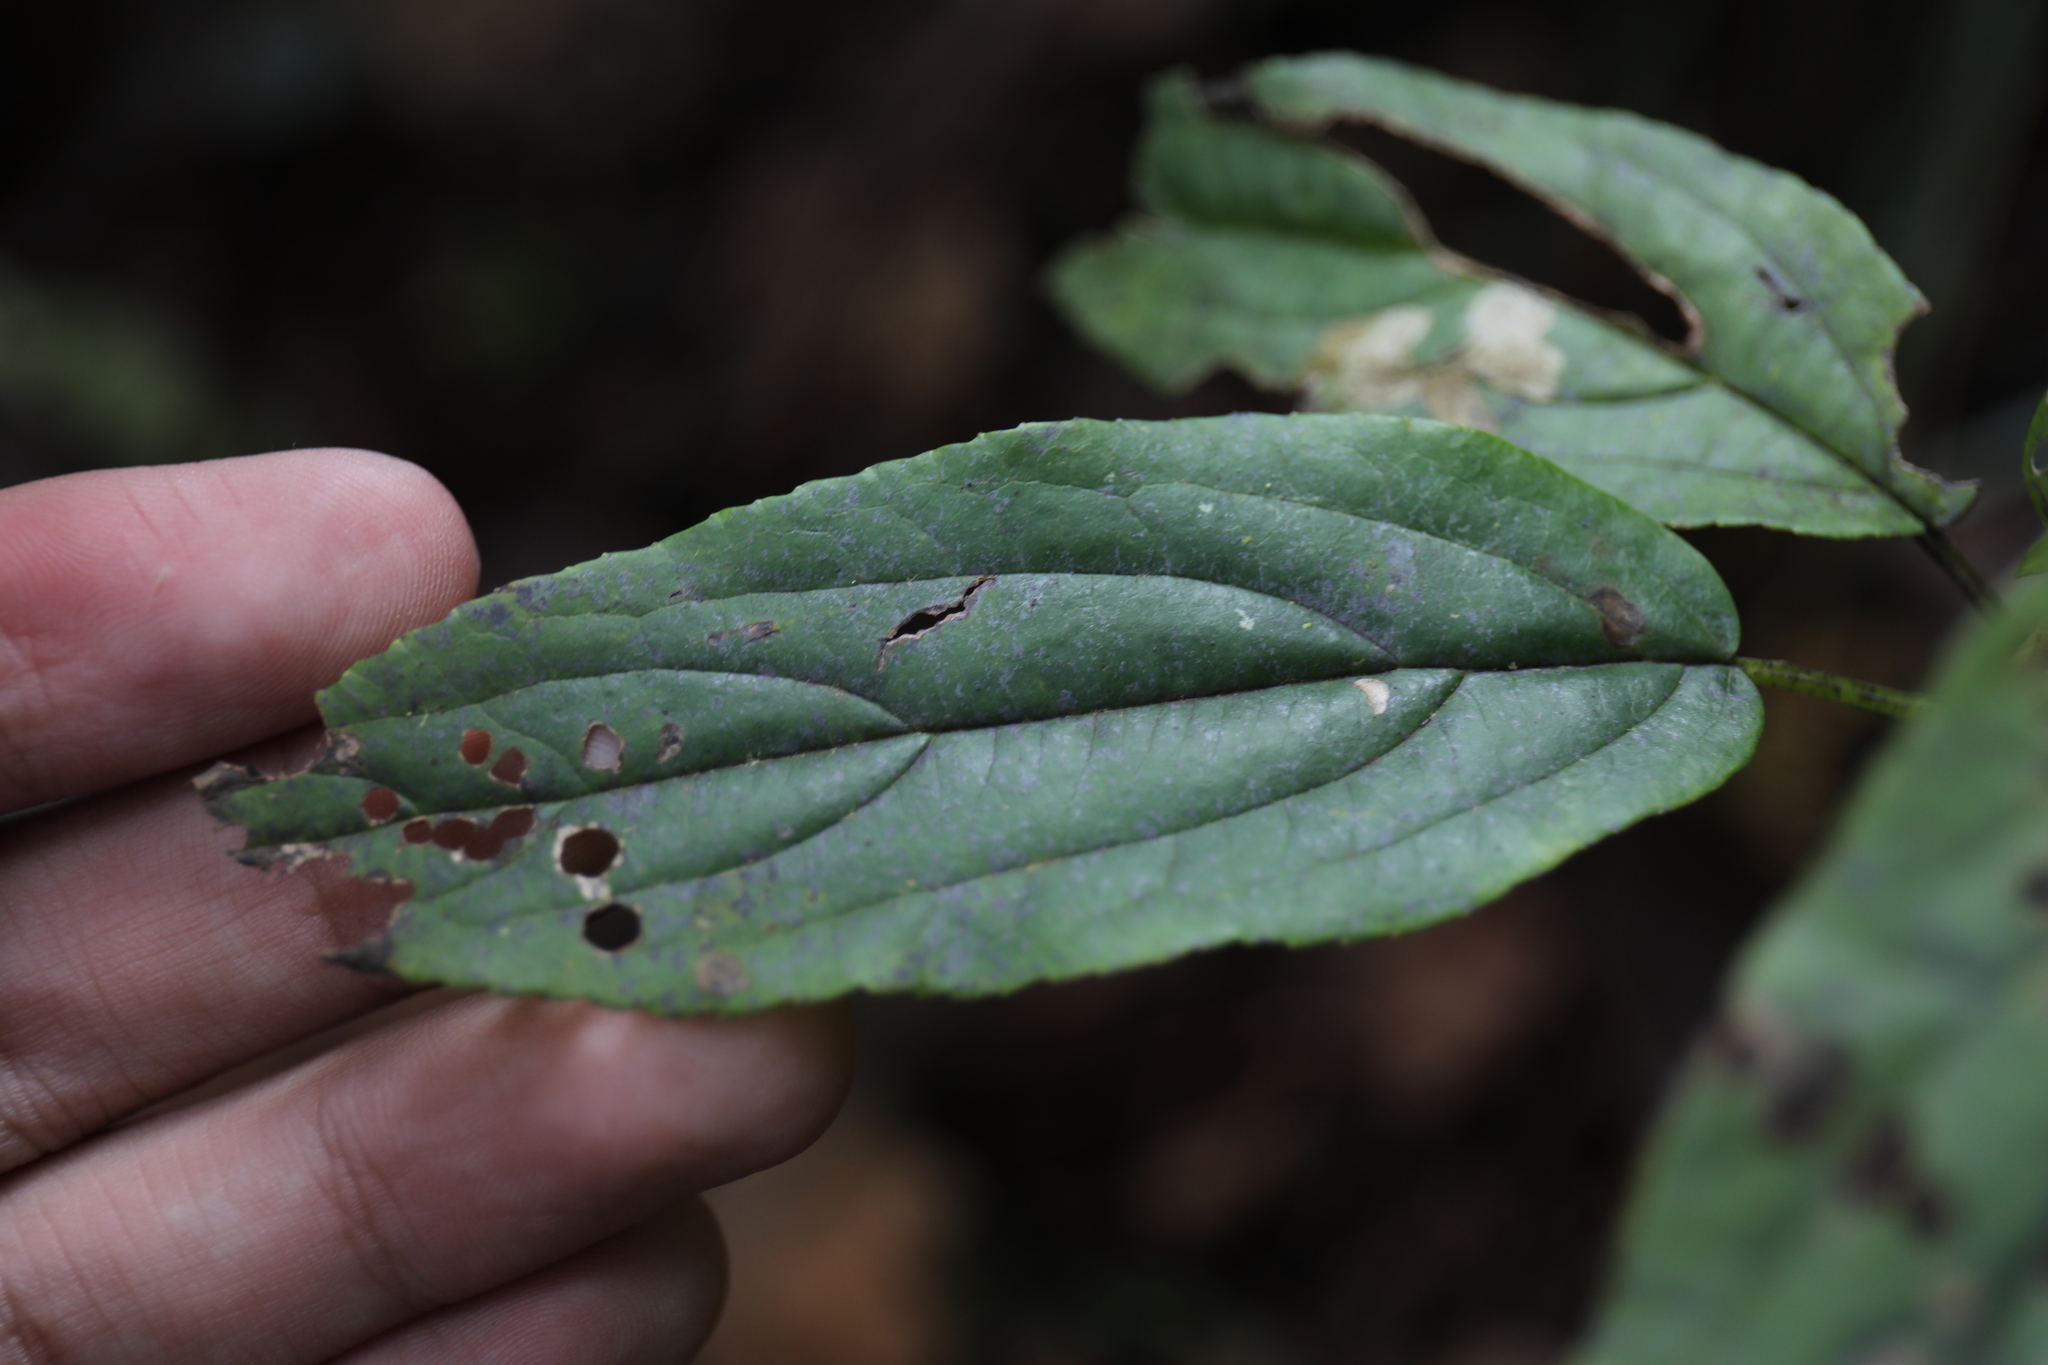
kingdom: Plantae
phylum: Tracheophyta
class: Magnoliopsida
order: Dipsacales
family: Viburnaceae
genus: Viburnum
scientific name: Viburnum urceolatum
